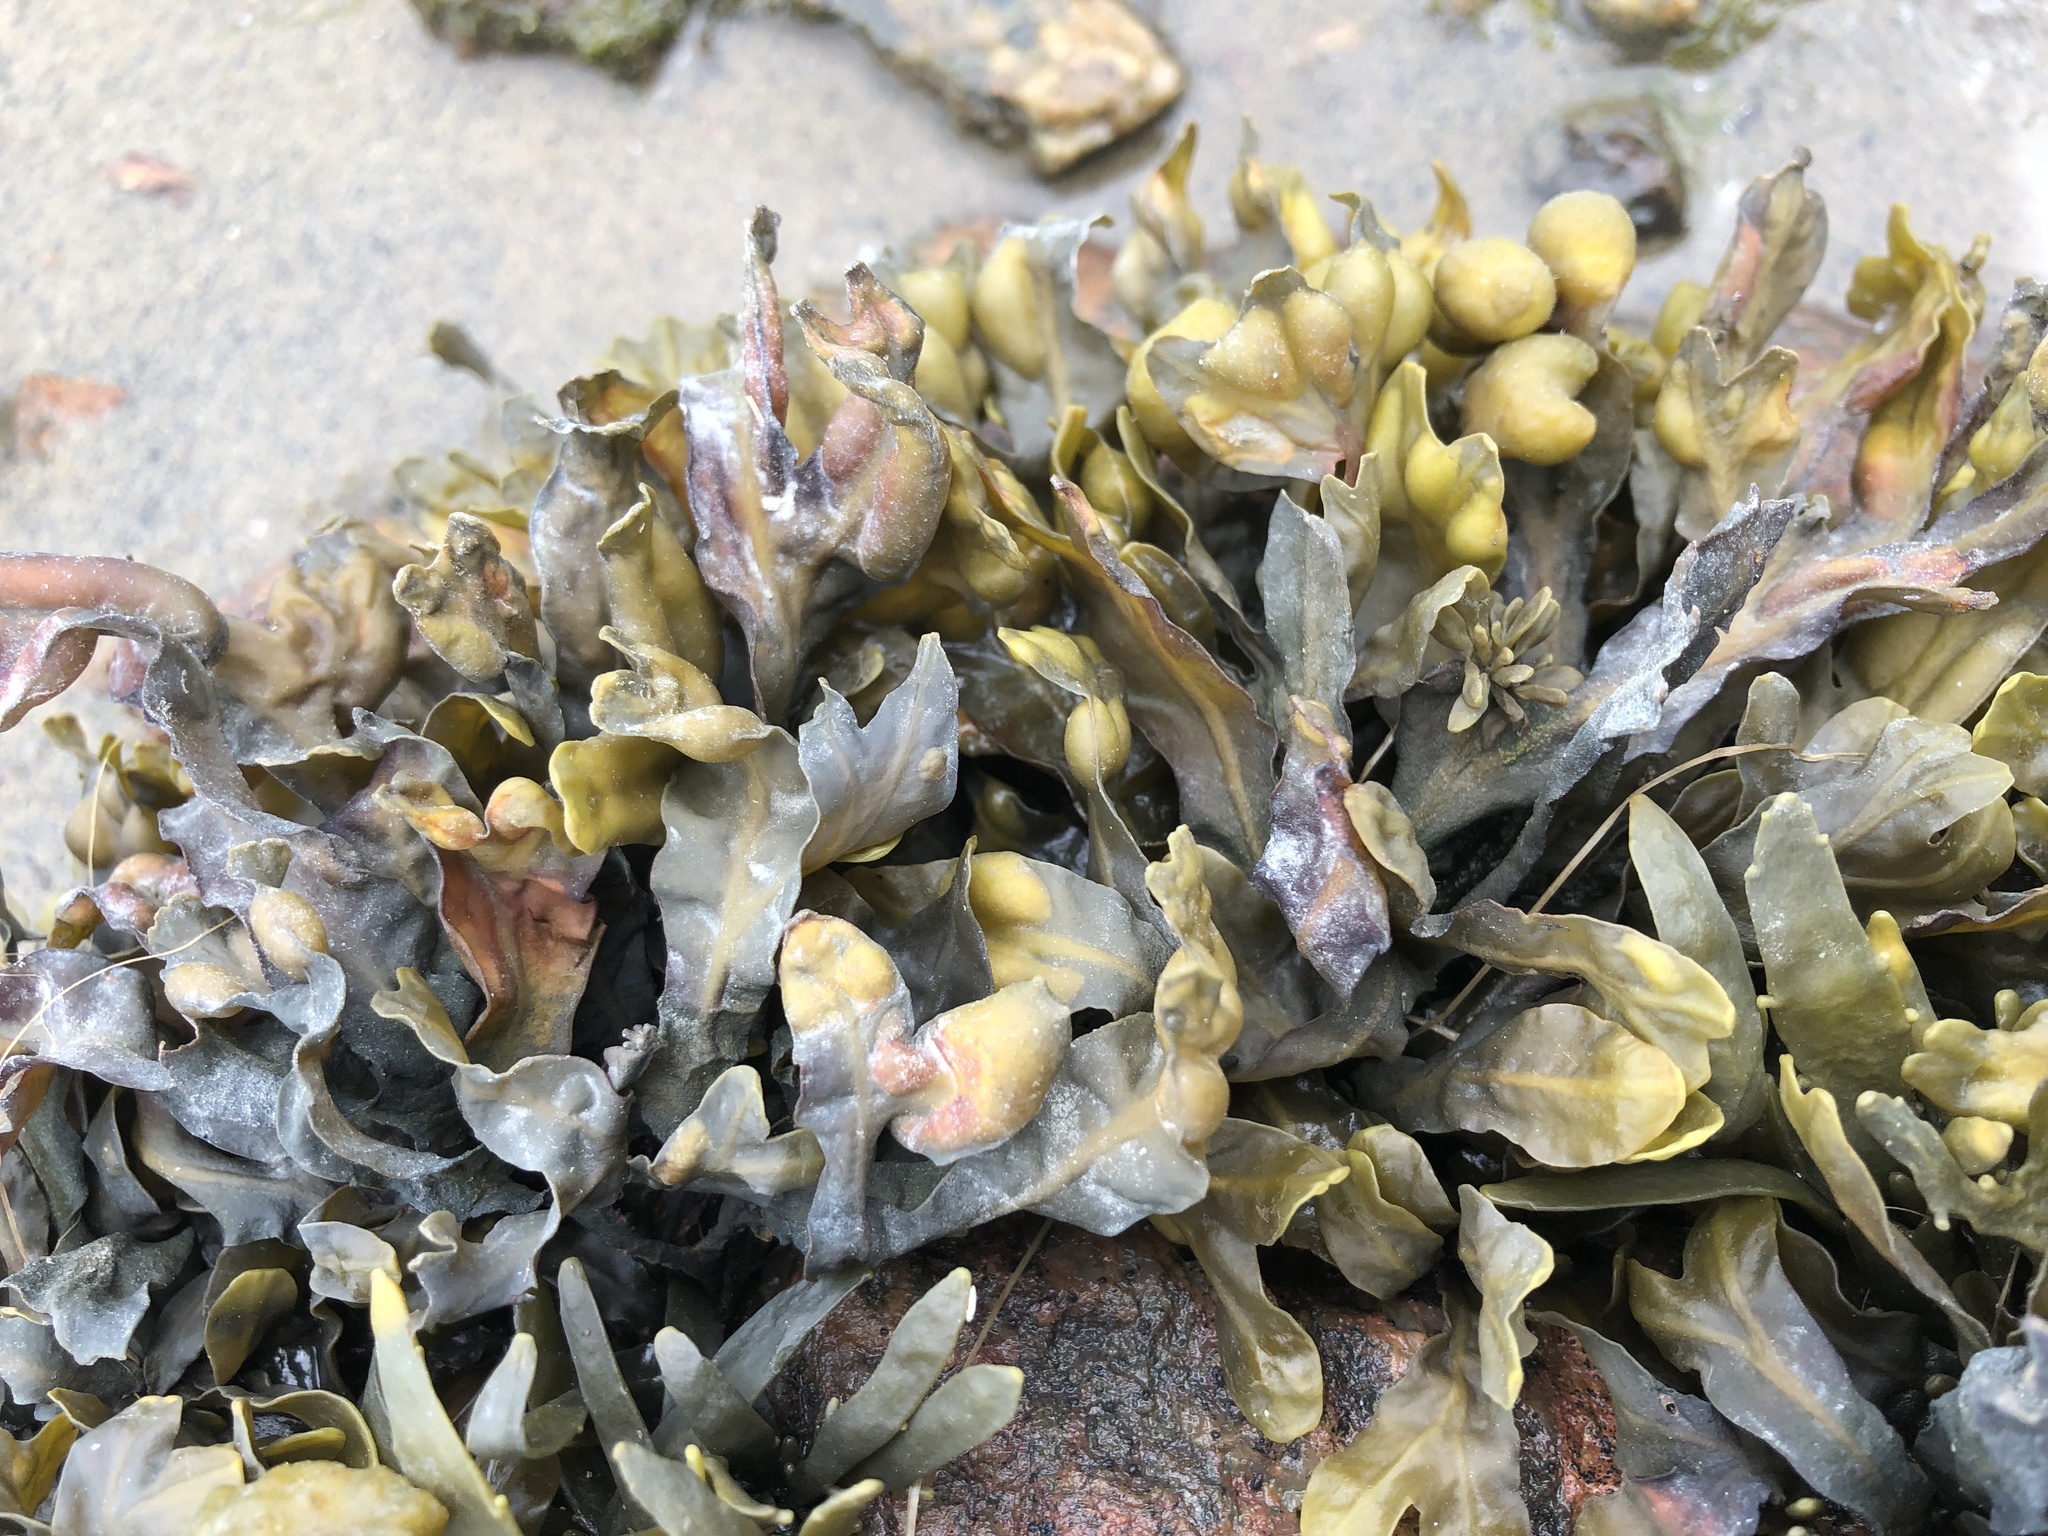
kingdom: Chromista
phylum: Ochrophyta
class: Phaeophyceae
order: Fucales
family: Fucaceae
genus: Fucus
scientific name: Fucus vesiculosus
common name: Bladder wrack
